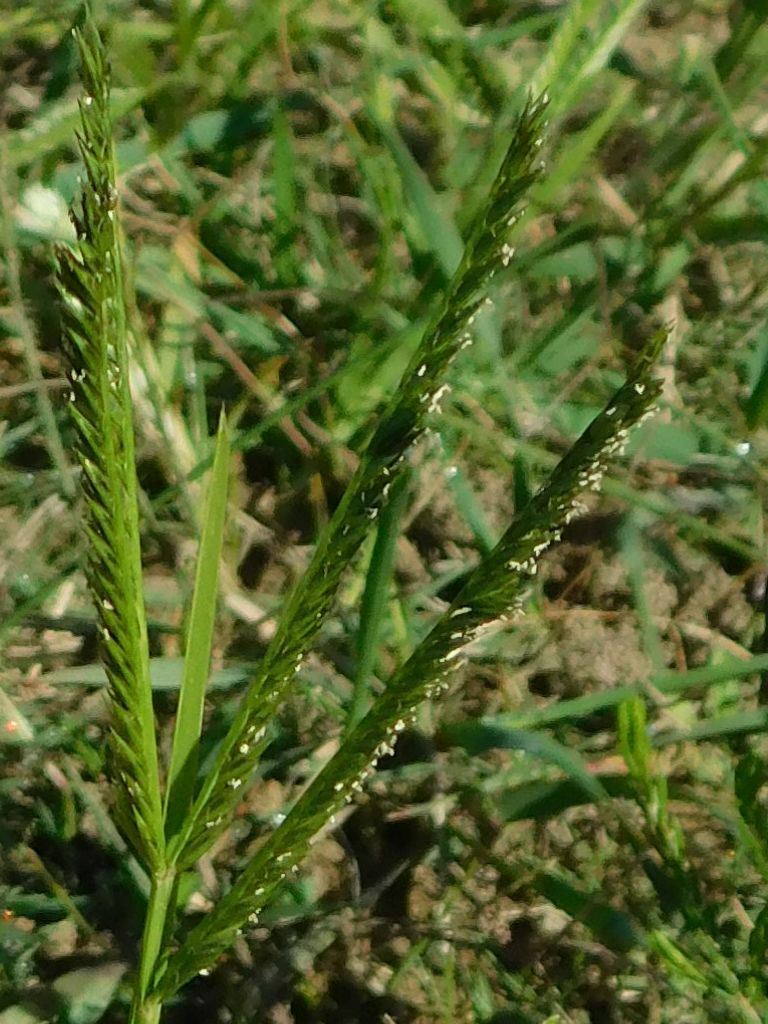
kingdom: Plantae
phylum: Tracheophyta
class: Liliopsida
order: Poales
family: Poaceae
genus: Eleusine
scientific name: Eleusine indica
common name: Yard-grass
